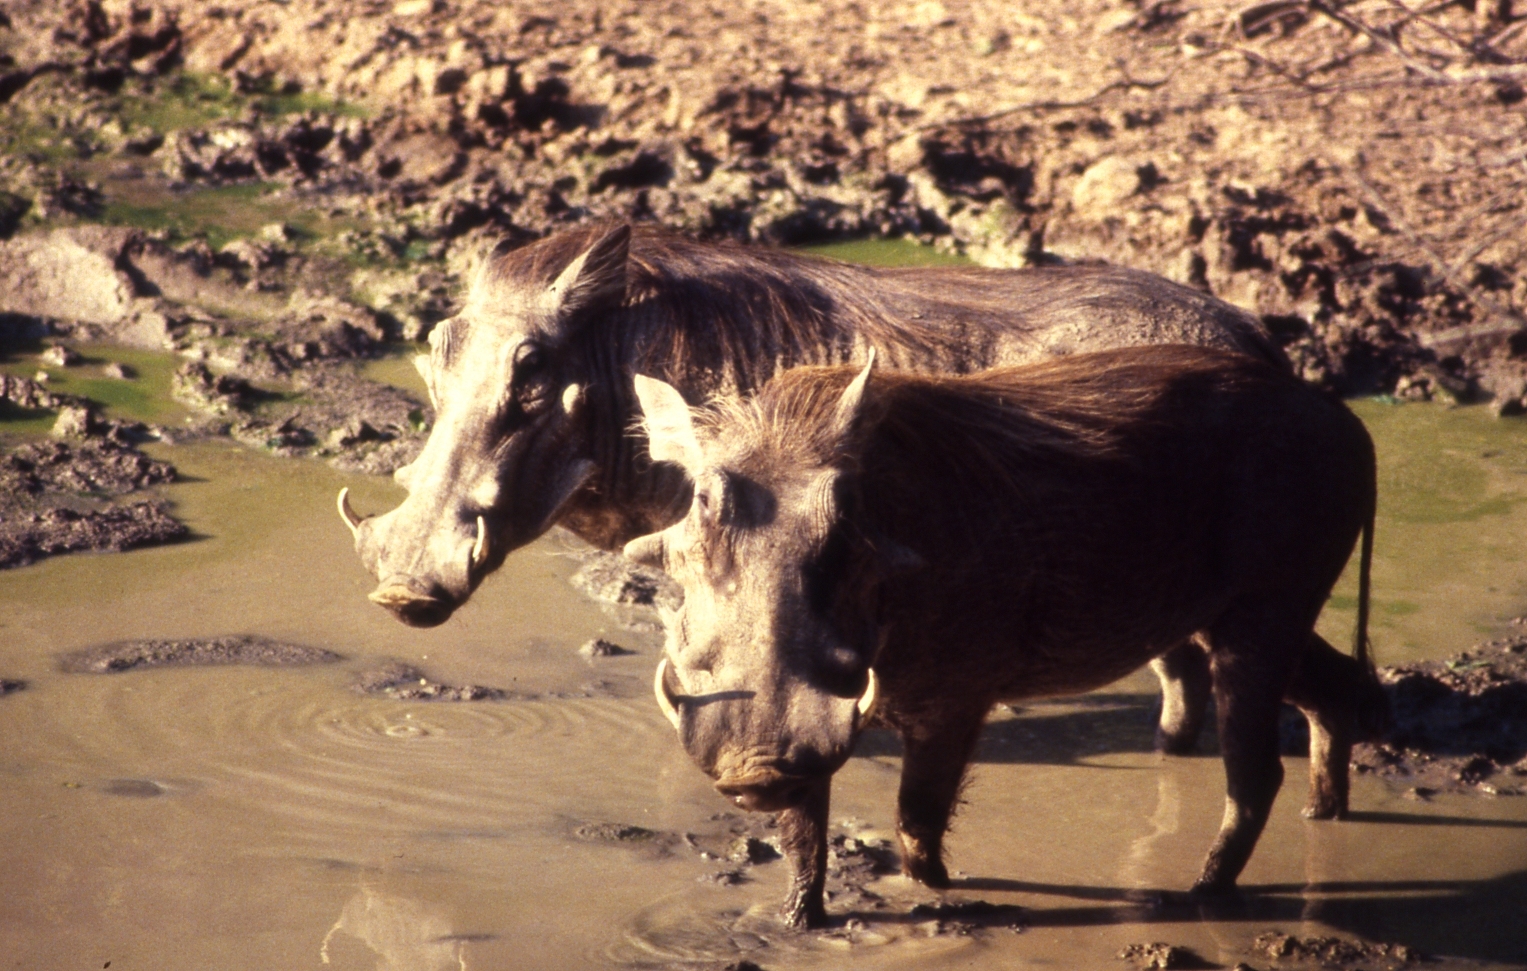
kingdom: Animalia
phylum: Chordata
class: Mammalia
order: Artiodactyla
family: Suidae
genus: Phacochoerus
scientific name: Phacochoerus africanus
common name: Common warthog
